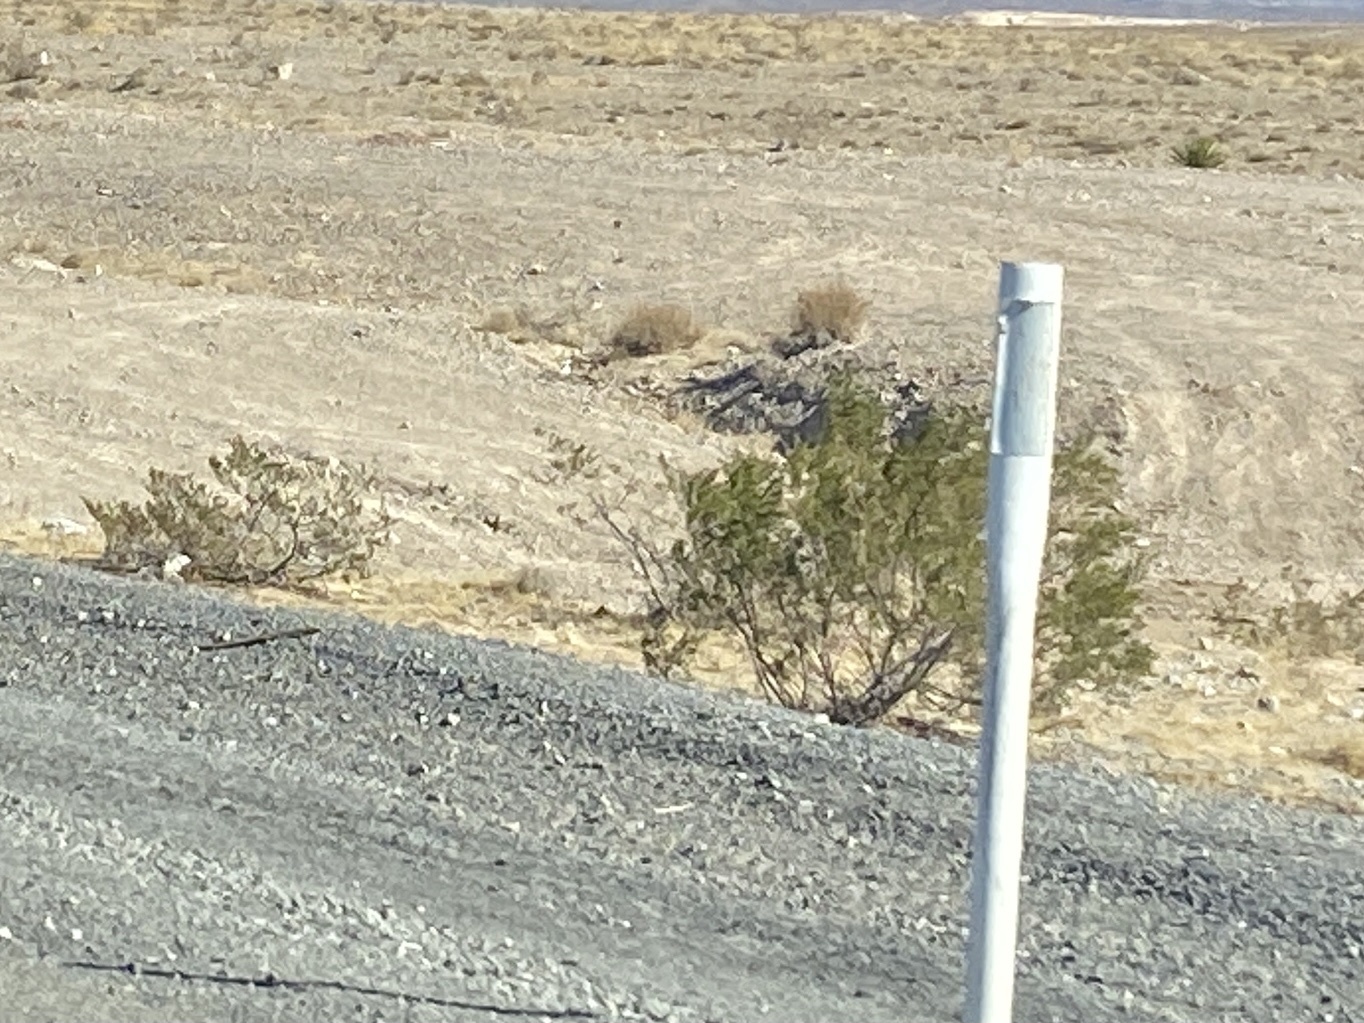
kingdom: Plantae
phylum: Tracheophyta
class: Magnoliopsida
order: Zygophyllales
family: Zygophyllaceae
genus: Larrea
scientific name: Larrea tridentata
